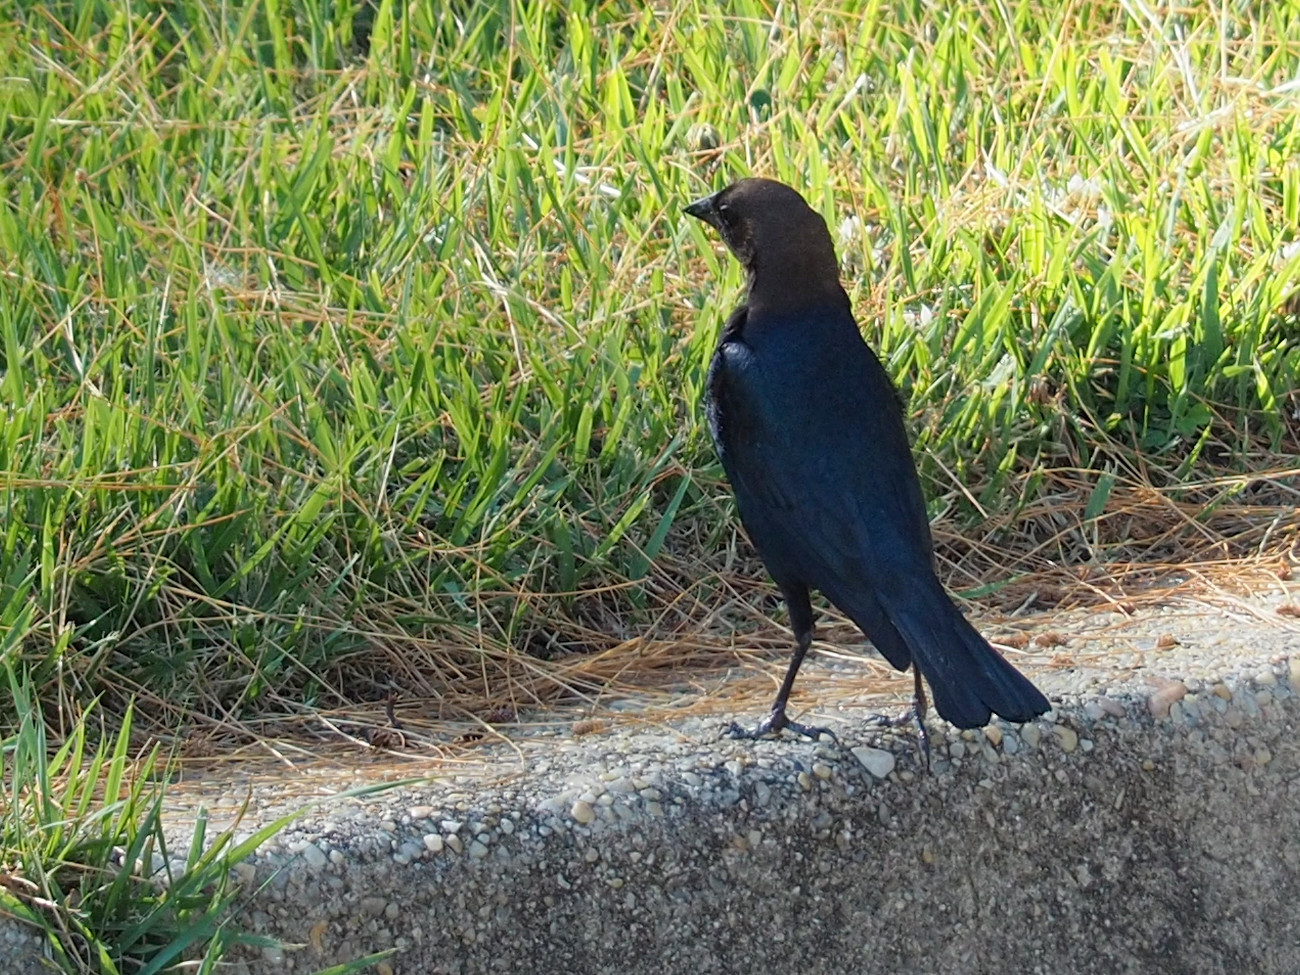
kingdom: Animalia
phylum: Chordata
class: Aves
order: Passeriformes
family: Icteridae
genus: Molothrus
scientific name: Molothrus ater
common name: Brown-headed cowbird
